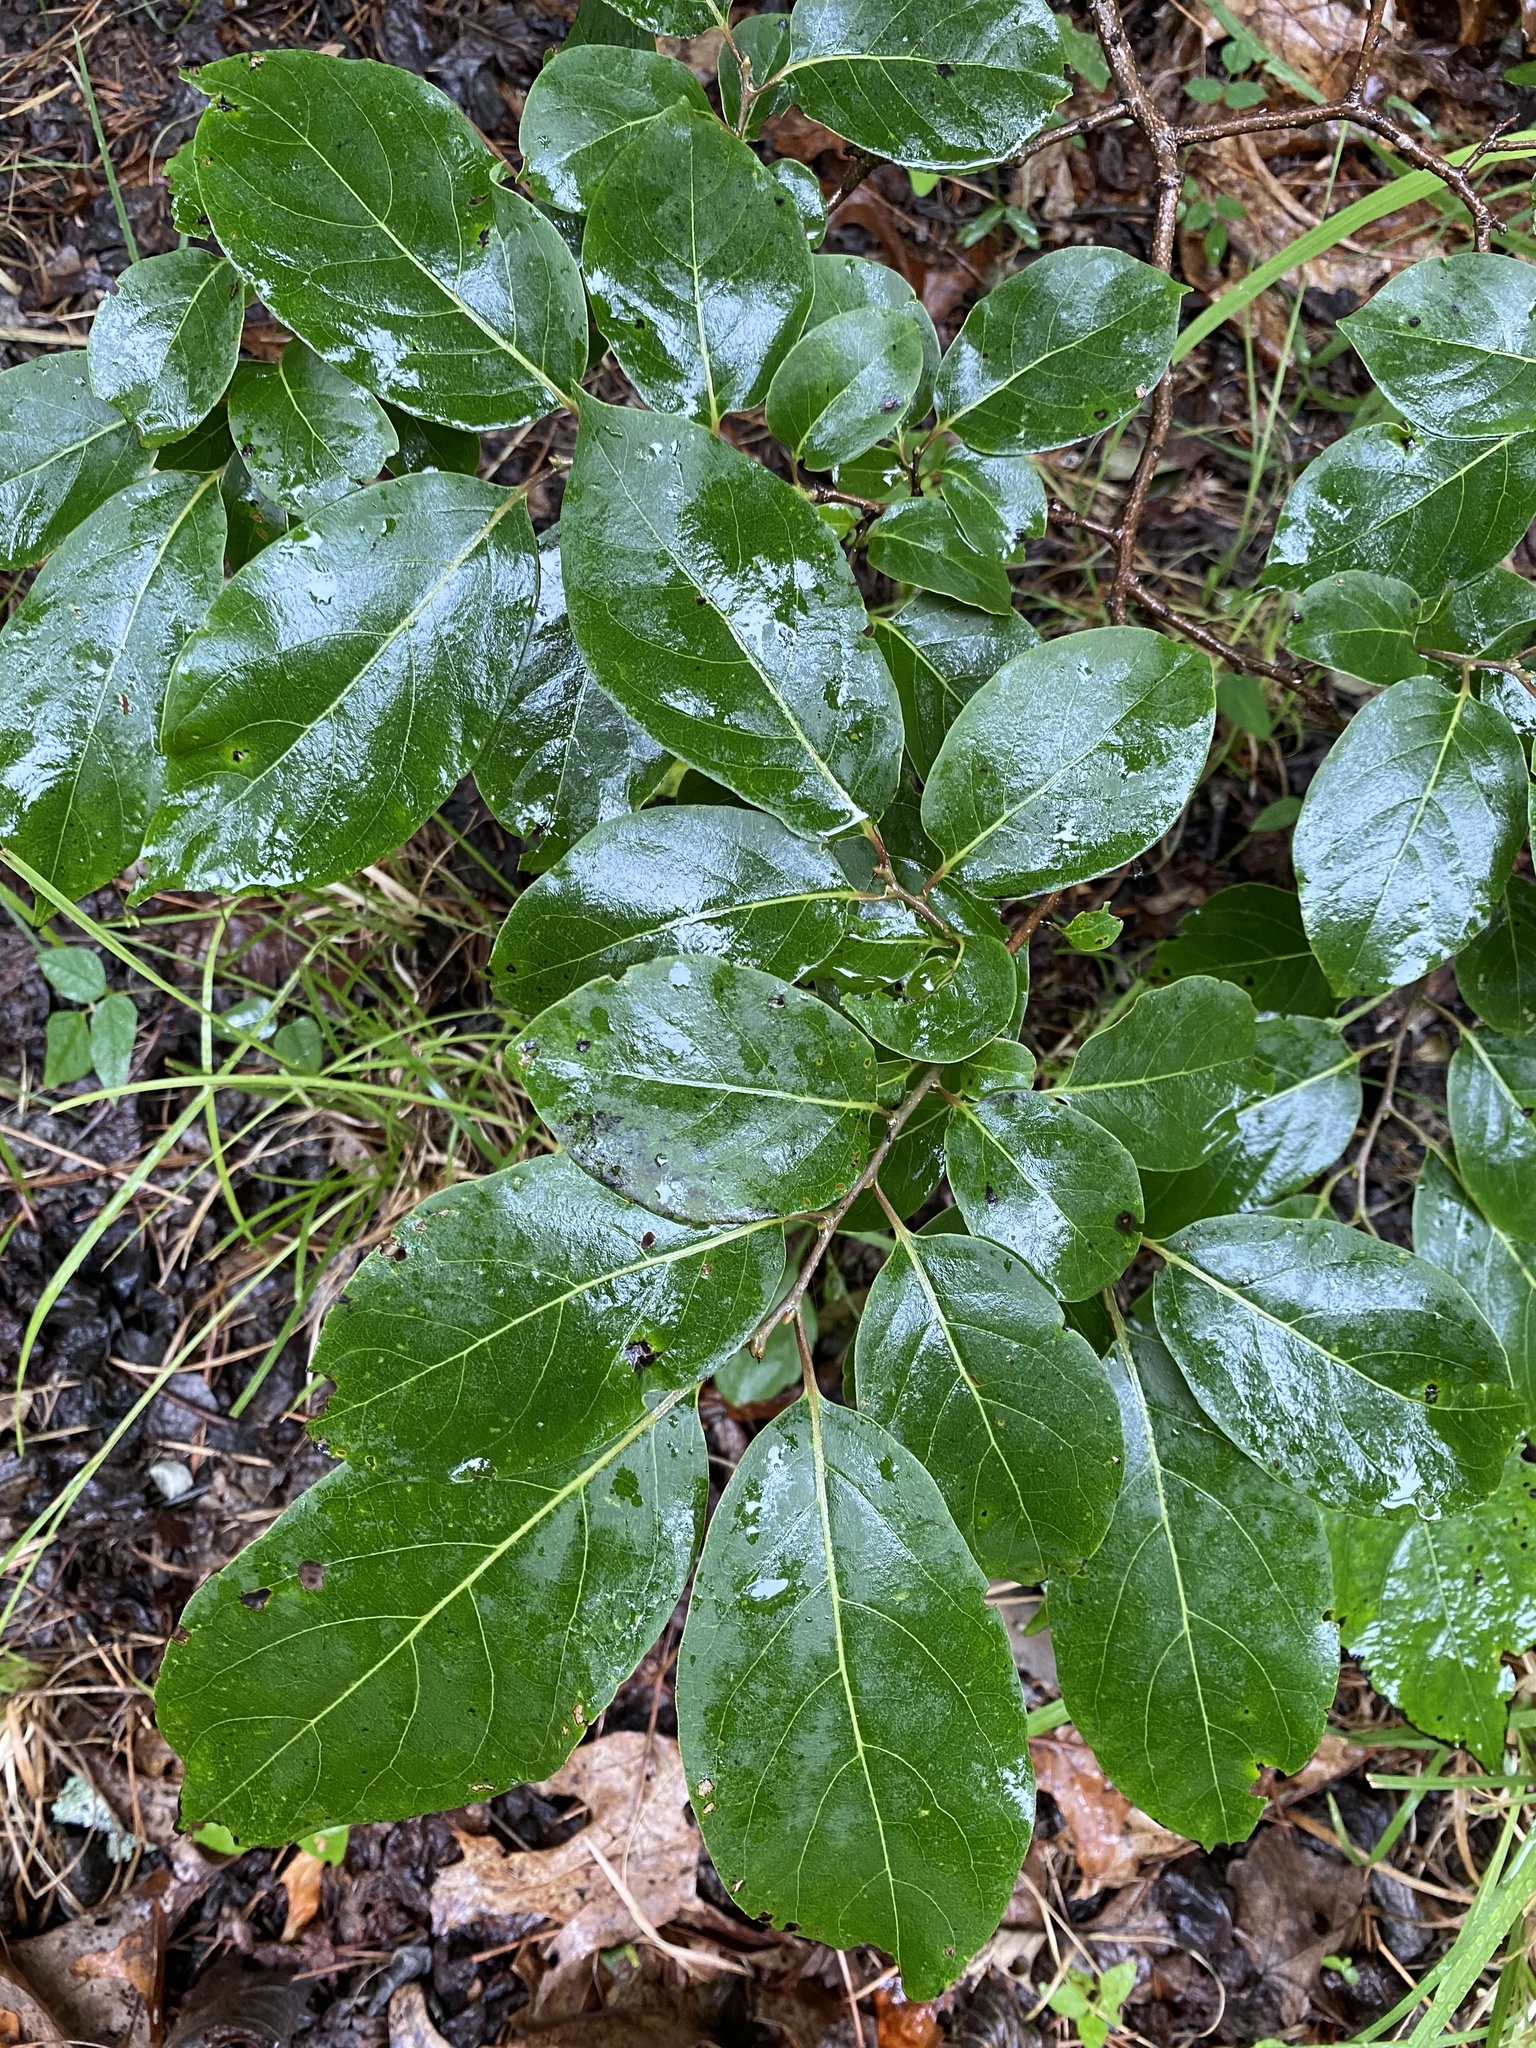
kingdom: Plantae
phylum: Tracheophyta
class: Magnoliopsida
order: Ericales
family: Ebenaceae
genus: Diospyros
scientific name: Diospyros virginiana
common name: Persimmon
